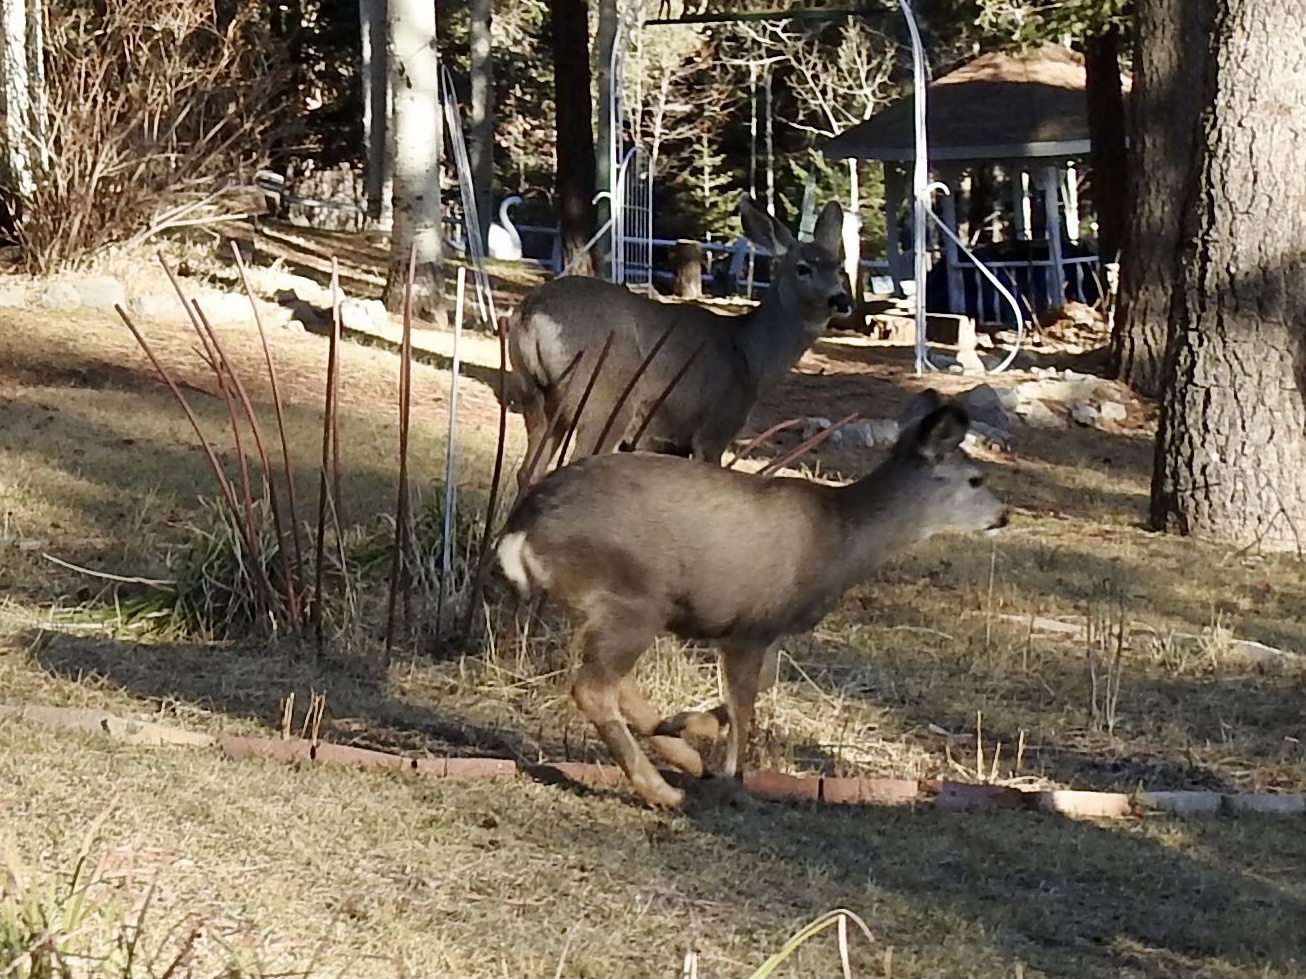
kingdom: Animalia
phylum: Chordata
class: Mammalia
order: Artiodactyla
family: Cervidae
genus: Odocoileus
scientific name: Odocoileus hemionus
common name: Mule deer
